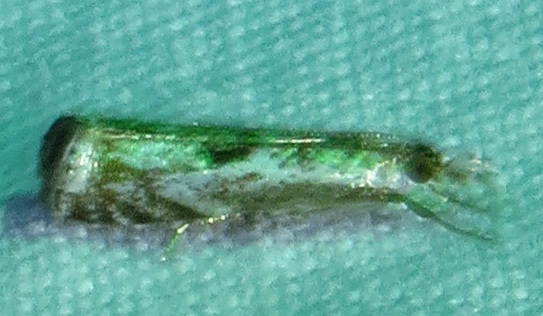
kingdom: Animalia
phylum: Arthropoda
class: Insecta
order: Lepidoptera
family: Crambidae
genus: Microcrambus
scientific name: Microcrambus kimballi
